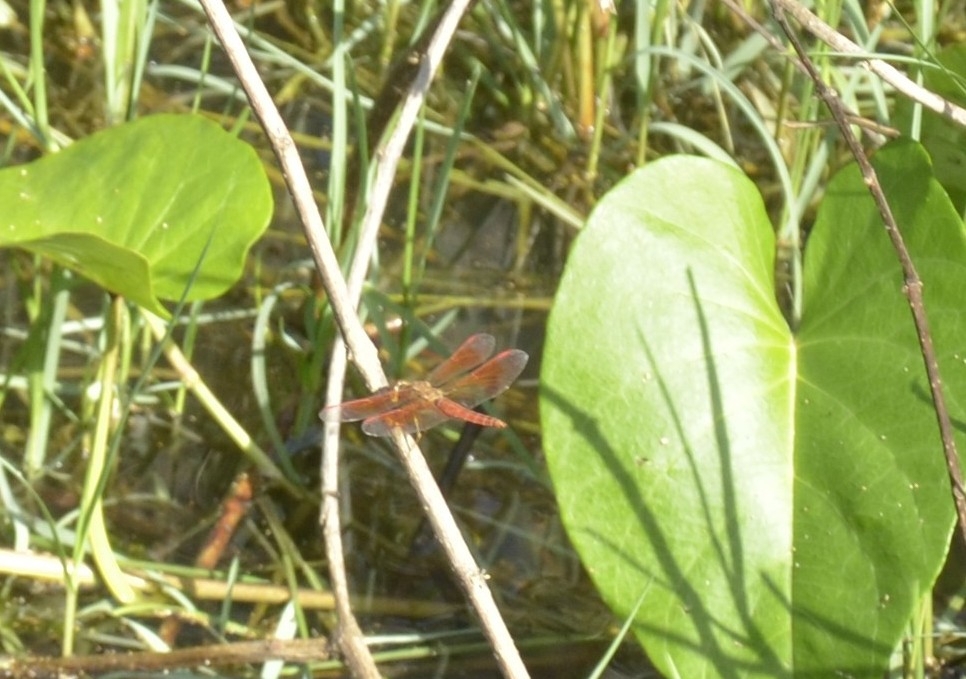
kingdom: Animalia
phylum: Arthropoda
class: Insecta
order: Odonata
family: Libellulidae
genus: Brachythemis
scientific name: Brachythemis contaminata
